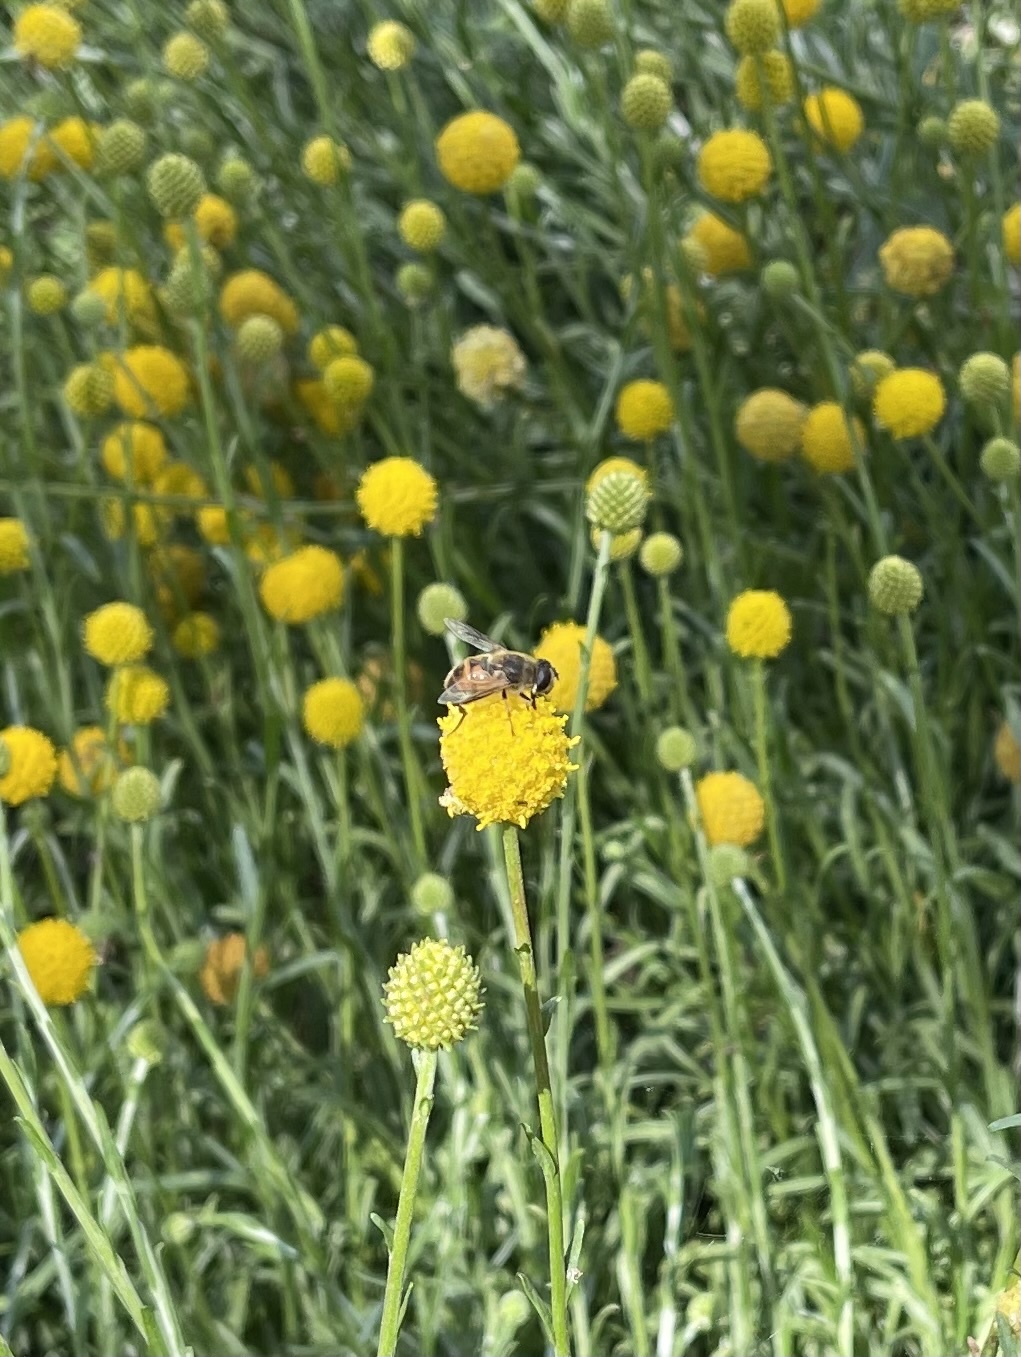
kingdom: Animalia
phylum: Arthropoda
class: Insecta
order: Diptera
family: Syrphidae
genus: Eristalis
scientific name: Eristalis tenax
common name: Drone fly
